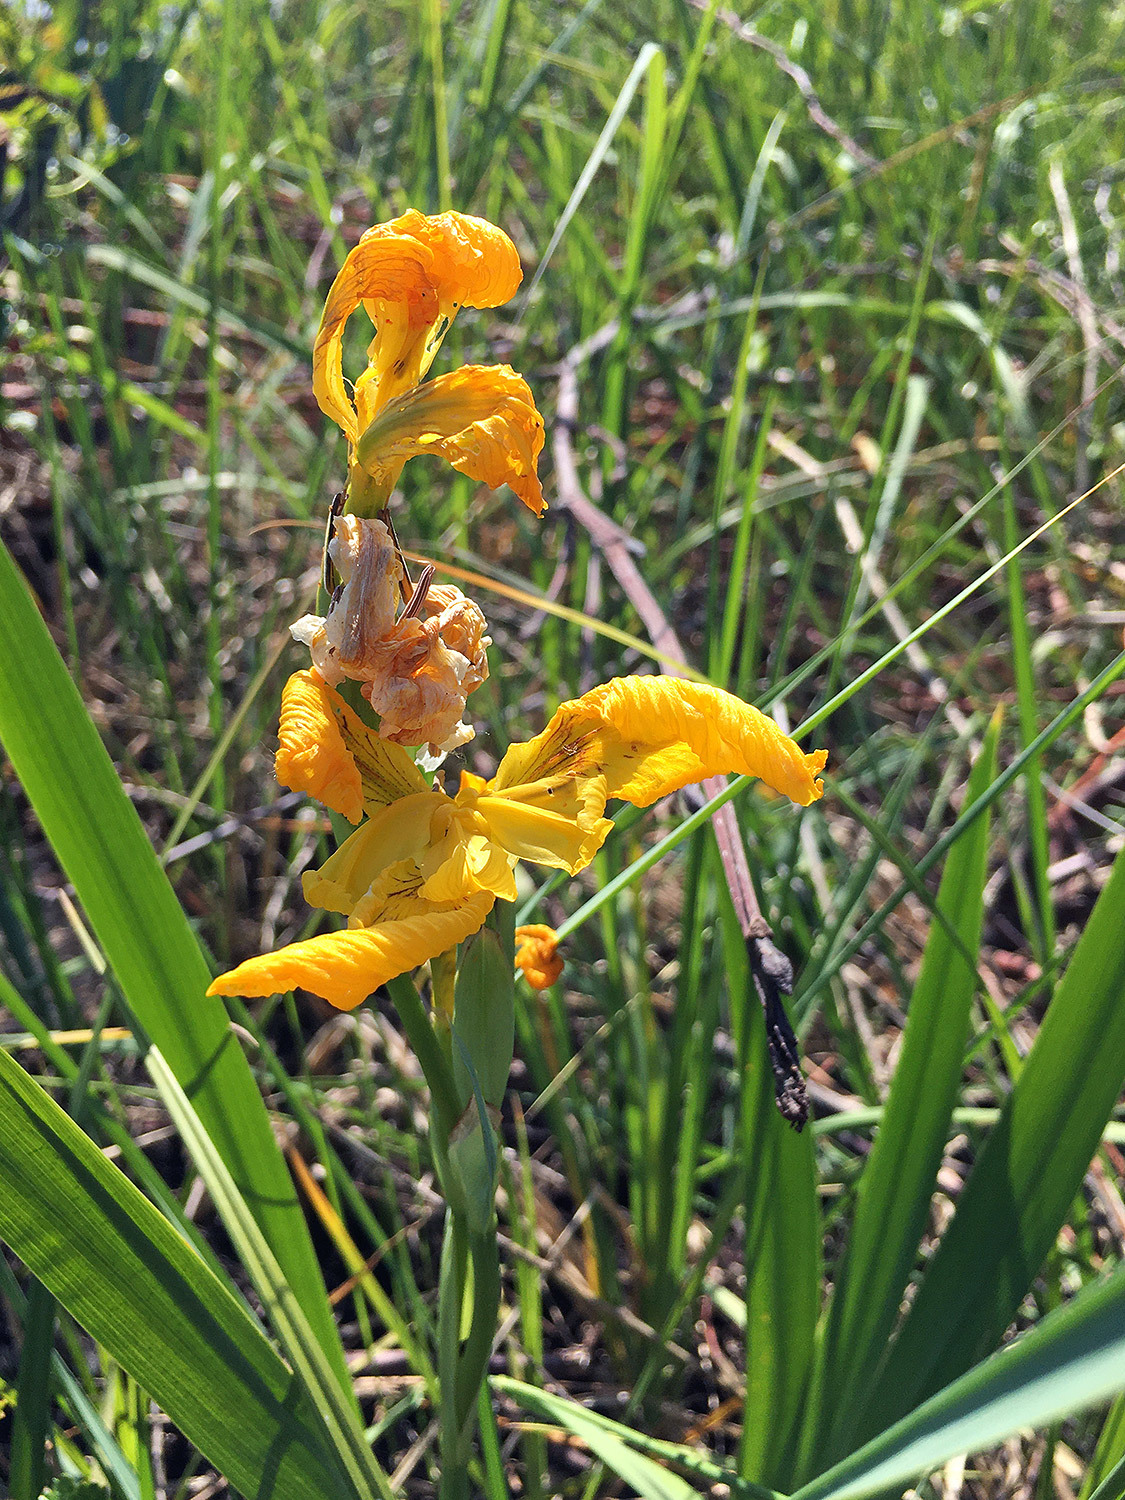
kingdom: Plantae
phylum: Tracheophyta
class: Liliopsida
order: Asparagales
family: Iridaceae
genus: Iris
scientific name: Iris pseudacorus
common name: Yellow flag
